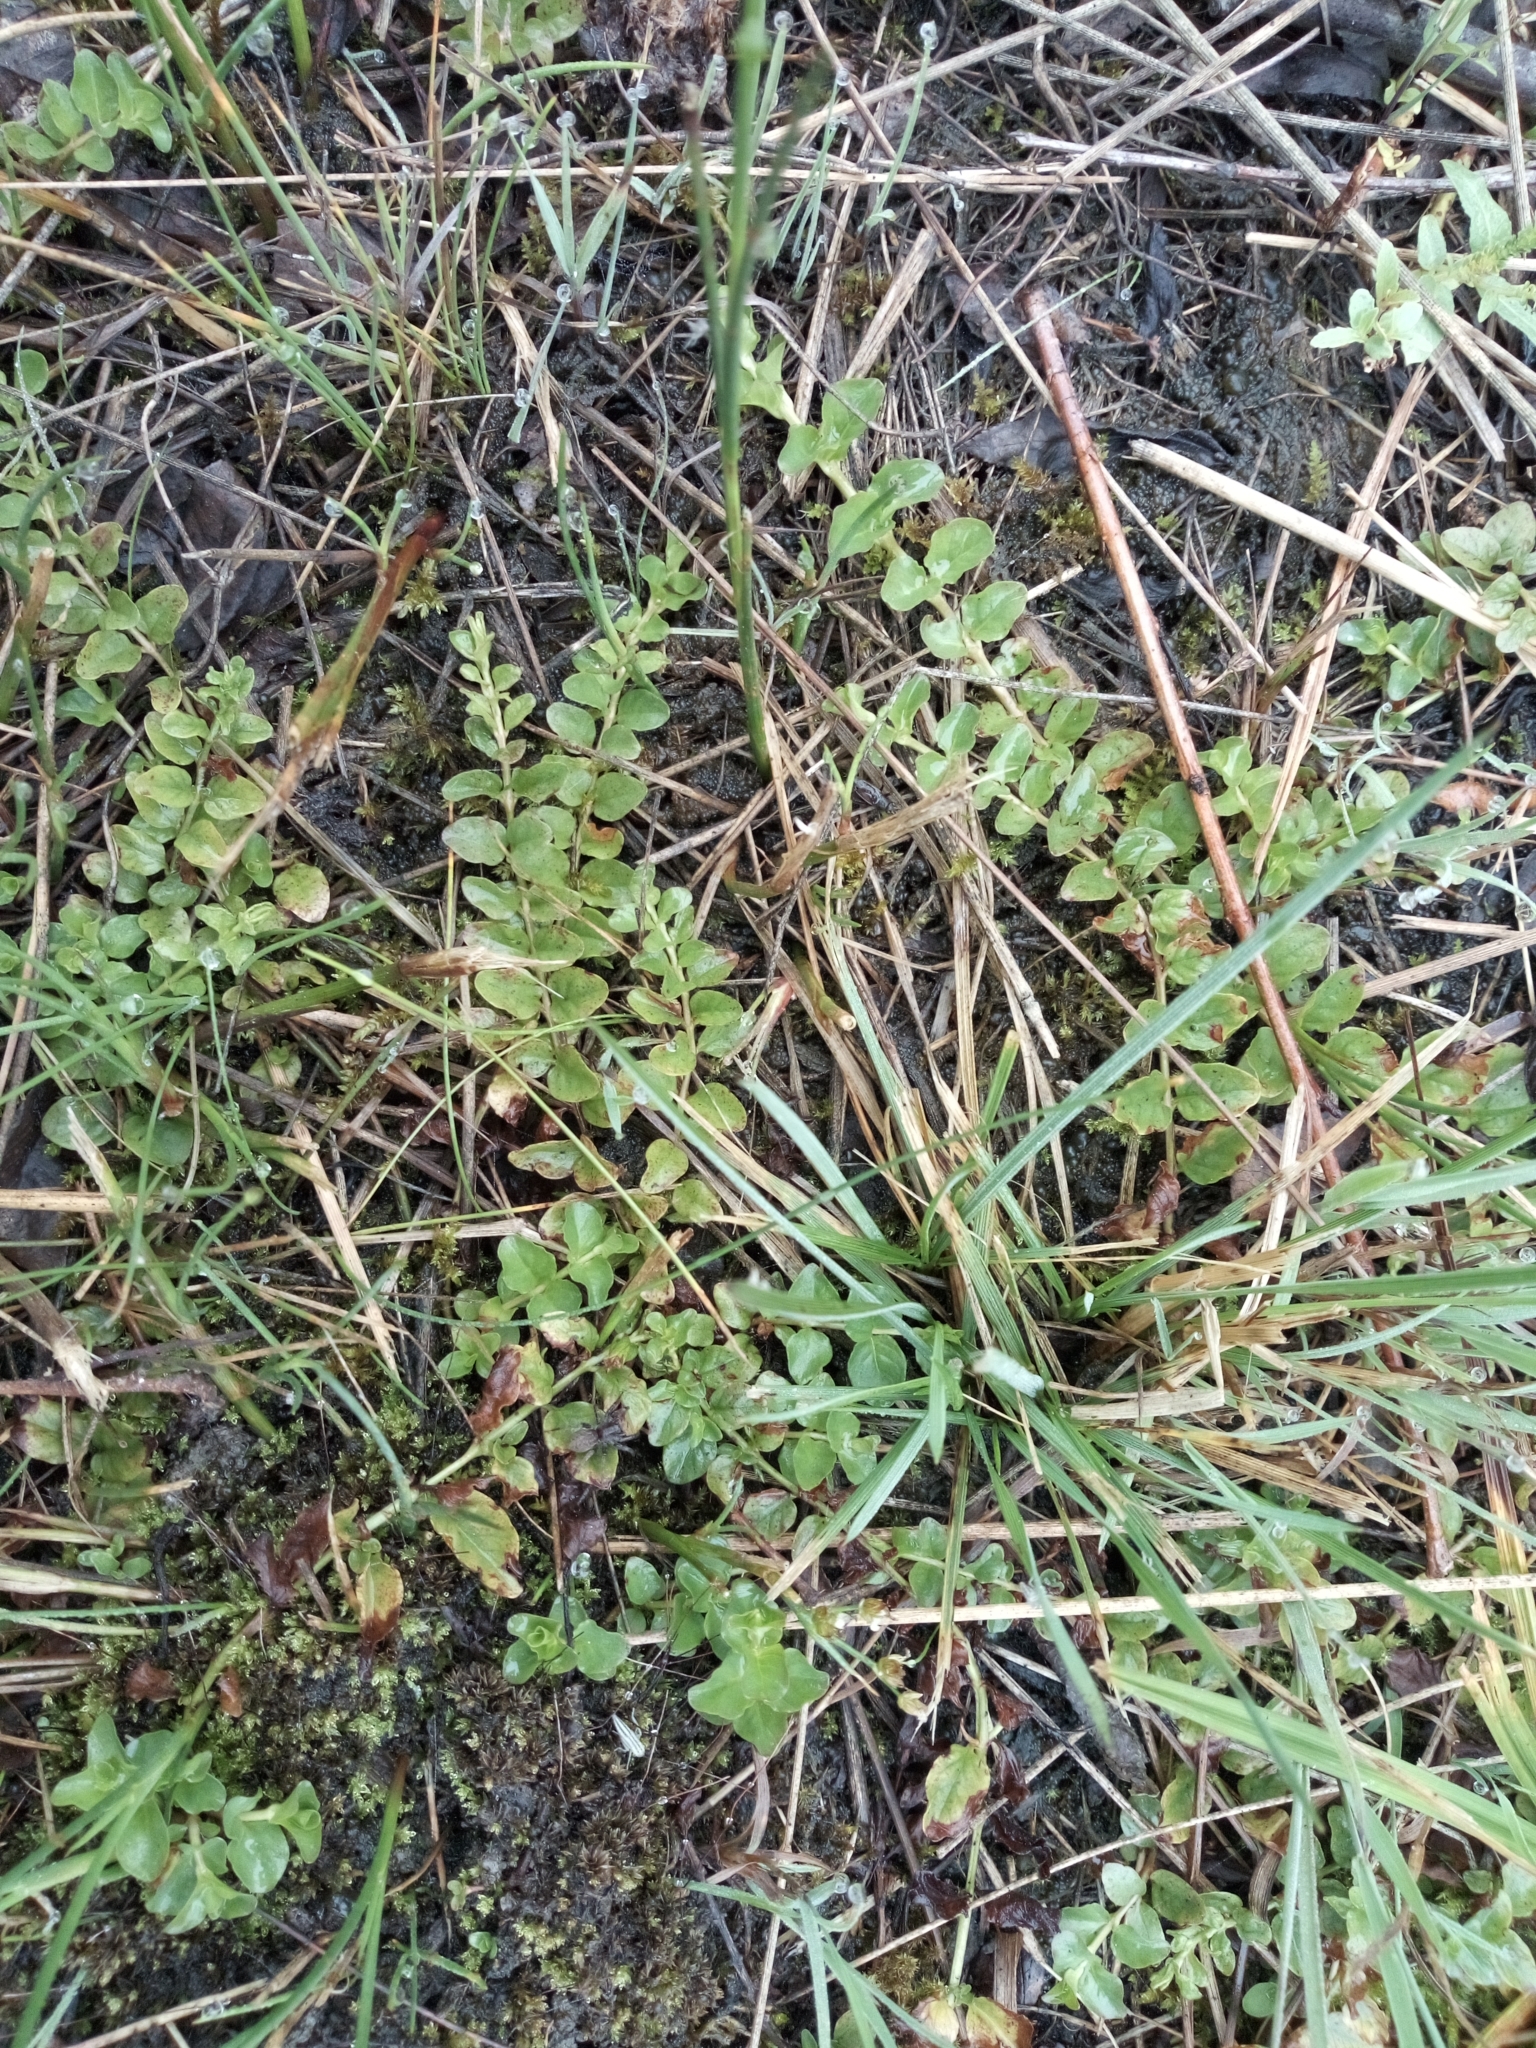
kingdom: Plantae
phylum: Tracheophyta
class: Magnoliopsida
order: Ericales
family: Primulaceae
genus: Lysimachia
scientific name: Lysimachia nummularia
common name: Moneywort
